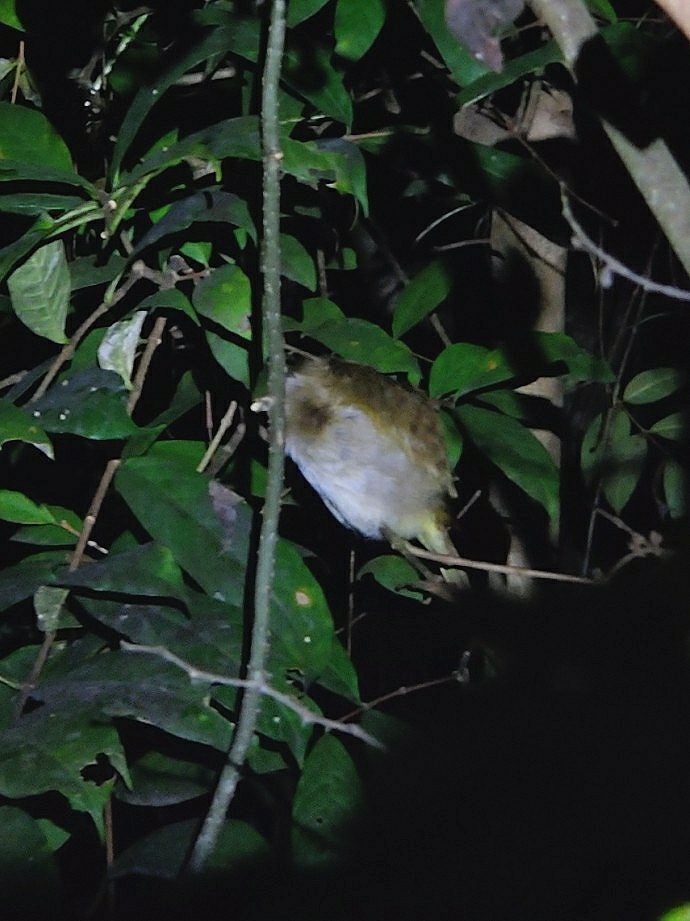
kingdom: Animalia
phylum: Chordata
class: Aves
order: Passeriformes
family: Pycnonotidae
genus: Pycnonotus
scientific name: Pycnonotus luteolus
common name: White-browed bulbul
